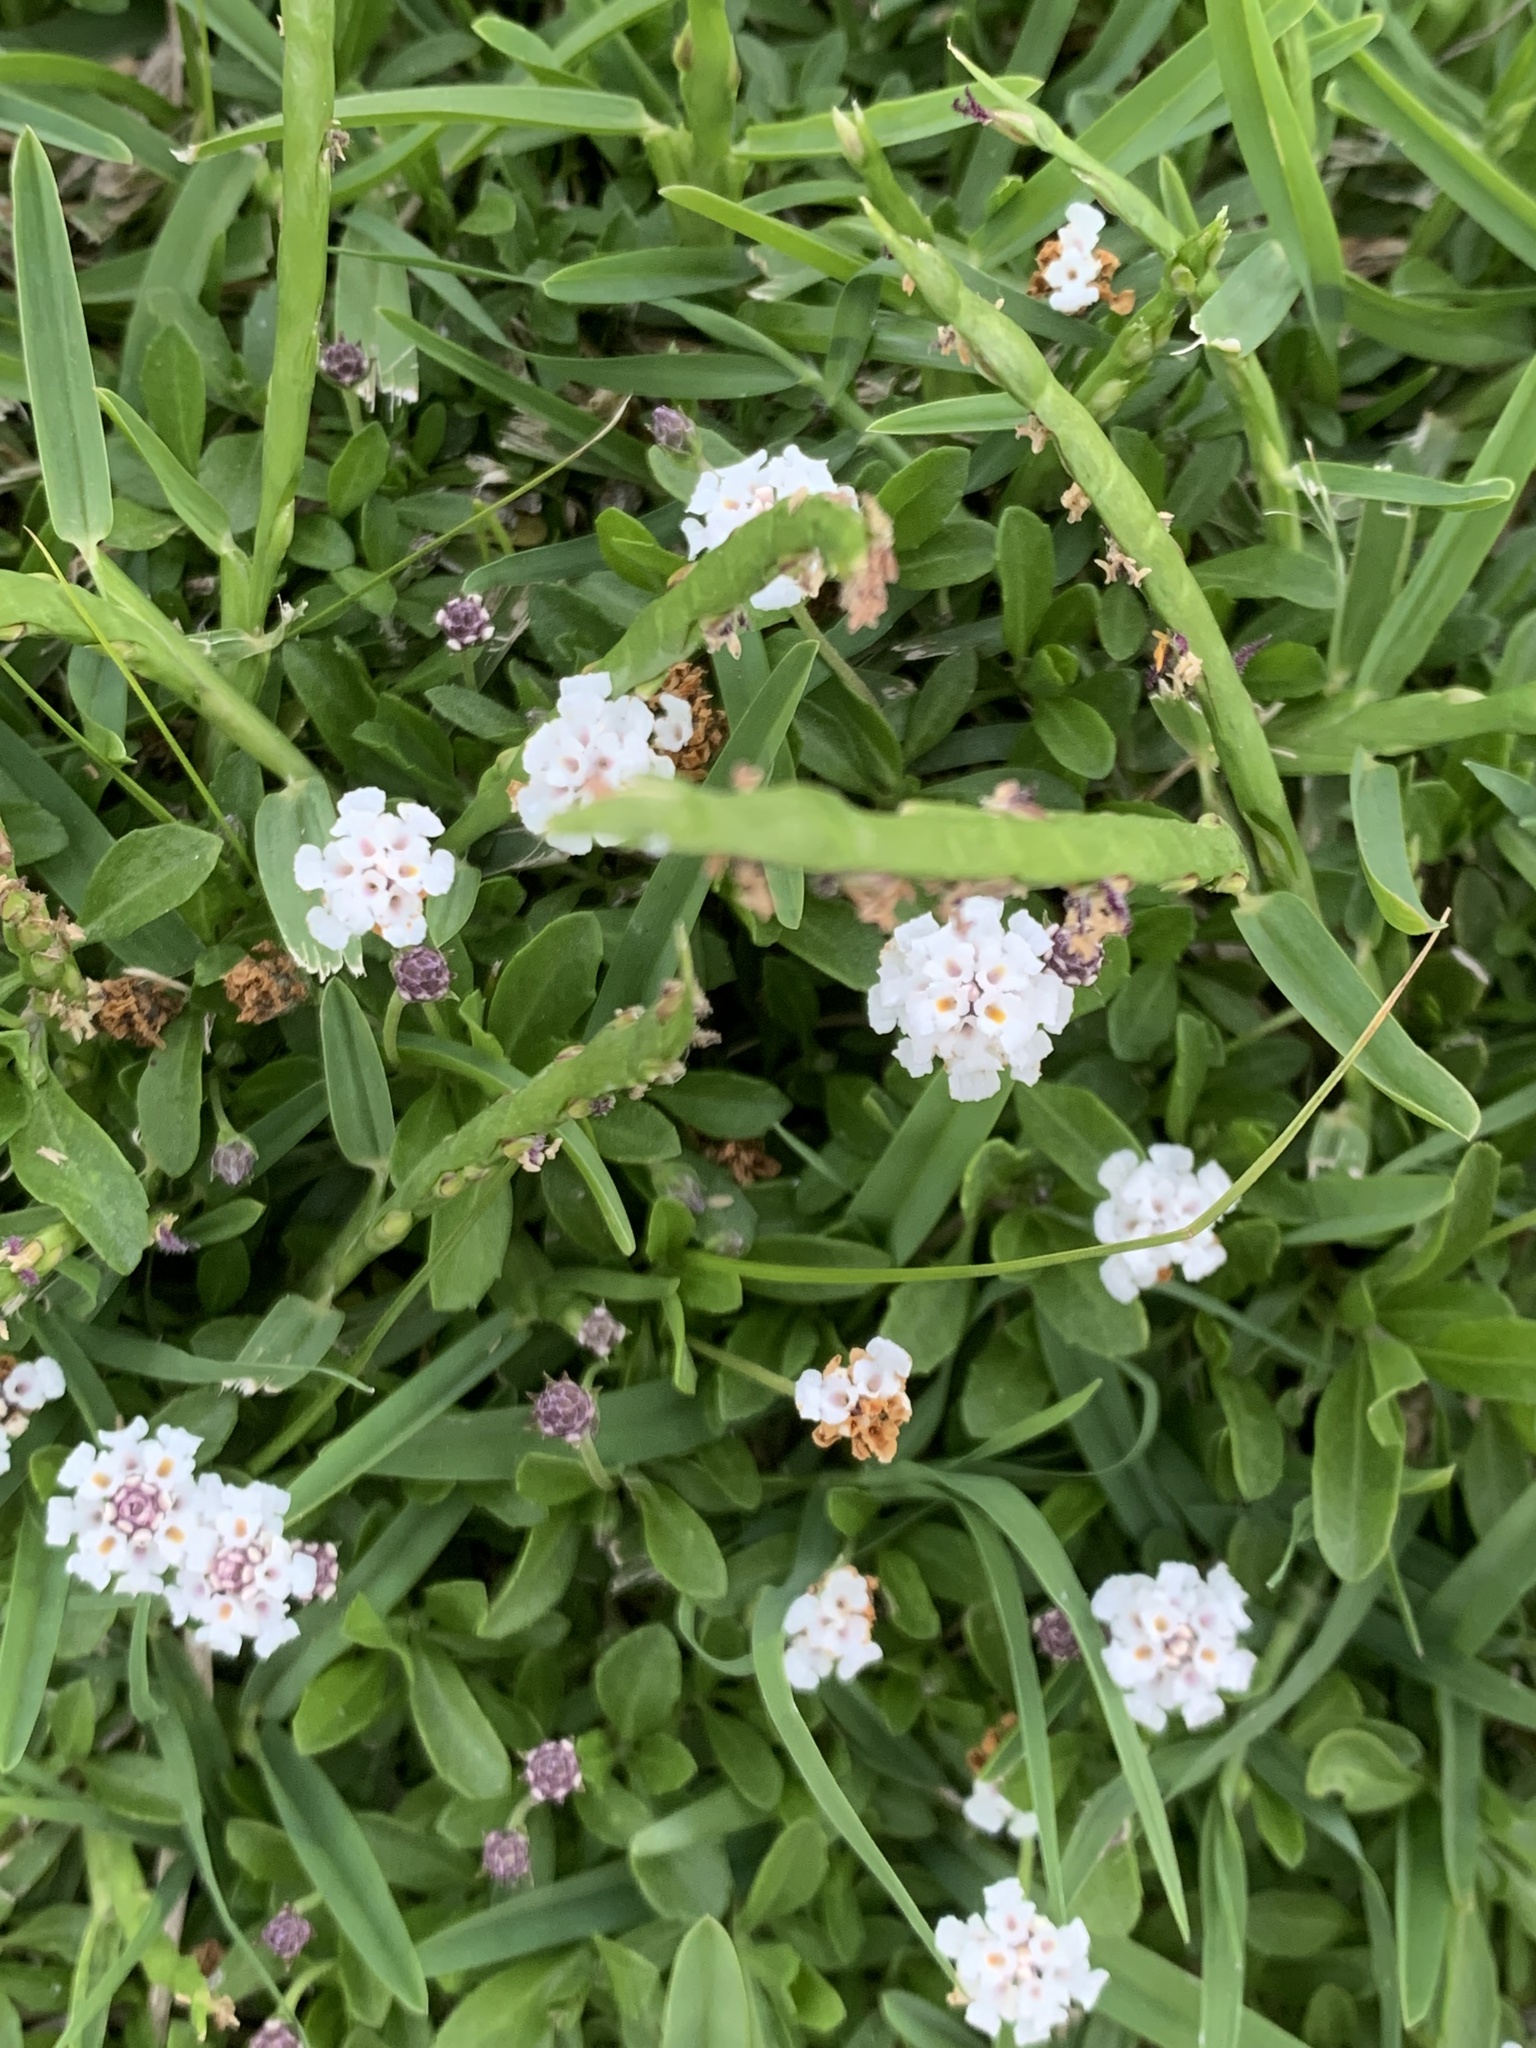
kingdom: Plantae
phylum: Tracheophyta
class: Magnoliopsida
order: Lamiales
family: Verbenaceae
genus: Phyla
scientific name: Phyla nodiflora
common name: Frogfruit
